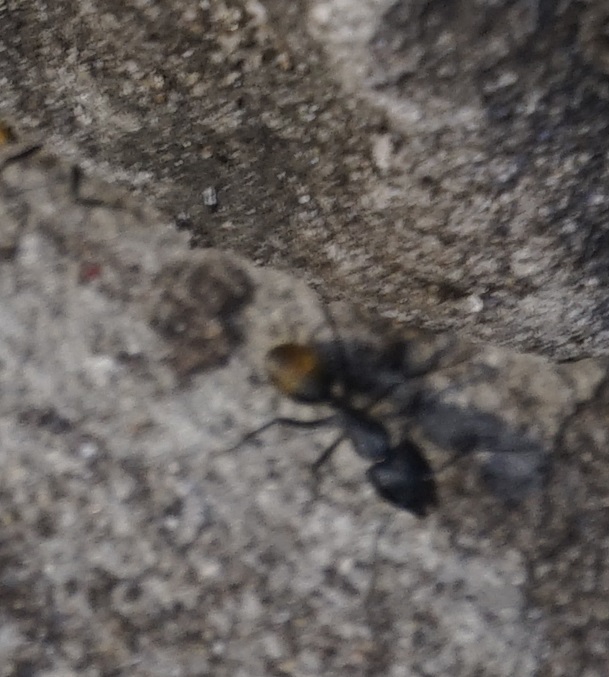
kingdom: Animalia
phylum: Arthropoda
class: Insecta
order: Hymenoptera
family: Formicidae
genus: Camponotus
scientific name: Camponotus aeneopilosus
